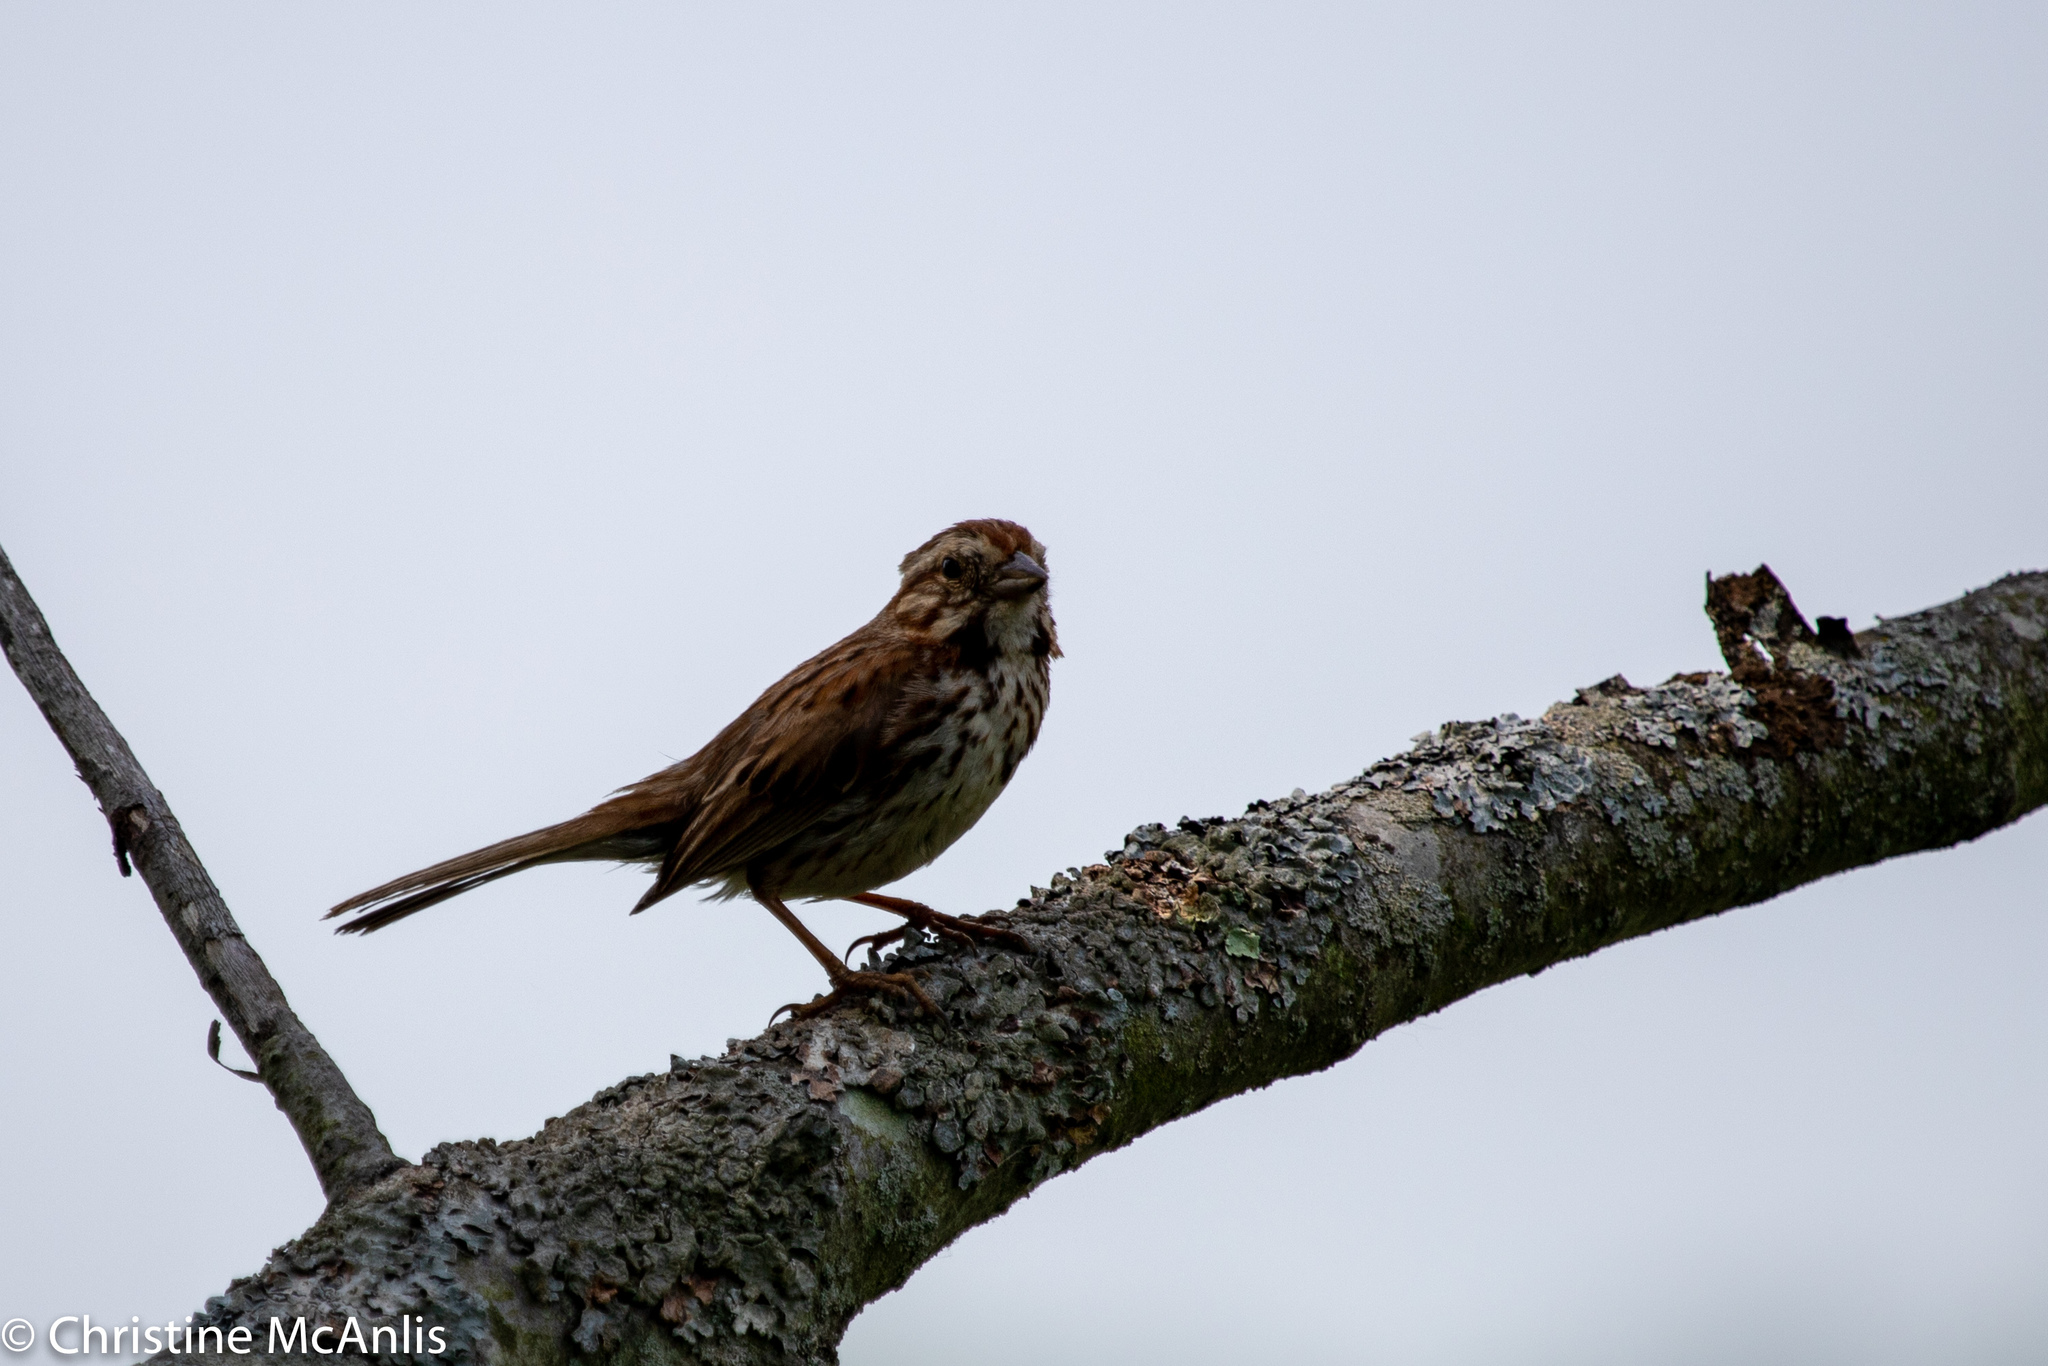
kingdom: Animalia
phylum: Chordata
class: Aves
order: Passeriformes
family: Passerellidae
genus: Melospiza
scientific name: Melospiza melodia
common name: Song sparrow
